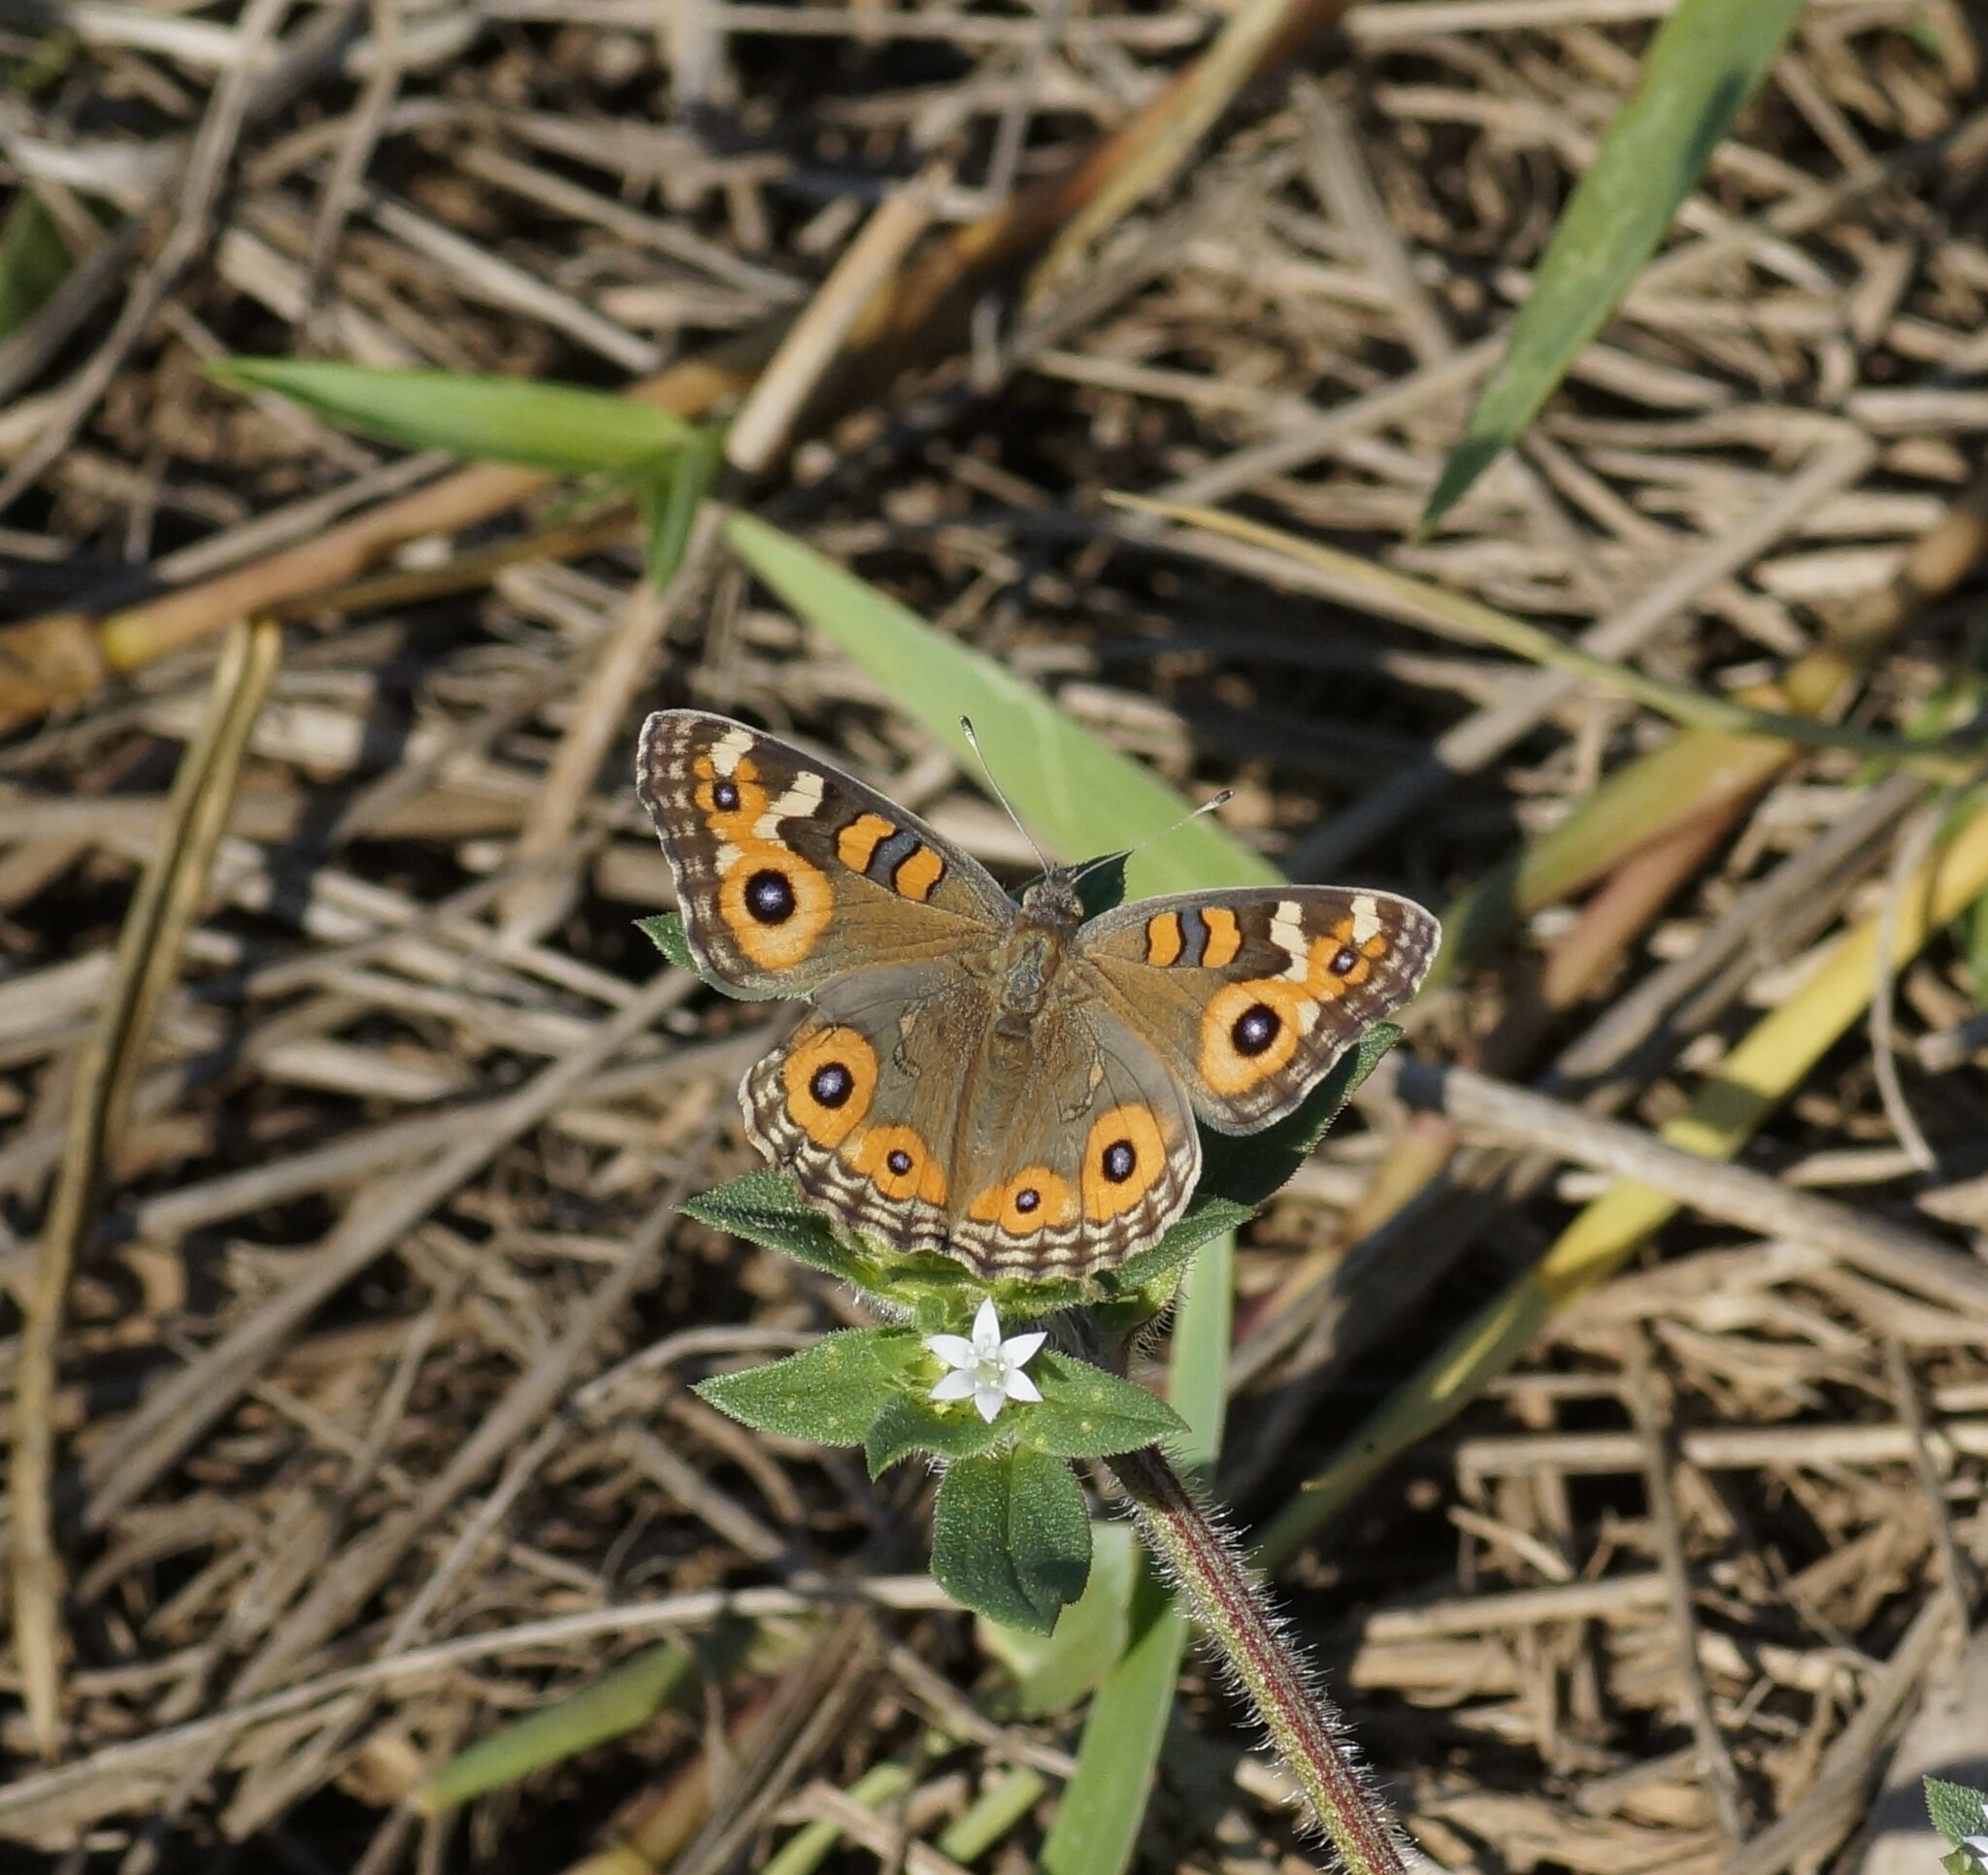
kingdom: Animalia
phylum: Arthropoda
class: Insecta
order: Lepidoptera
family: Nymphalidae
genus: Junonia
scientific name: Junonia villida
